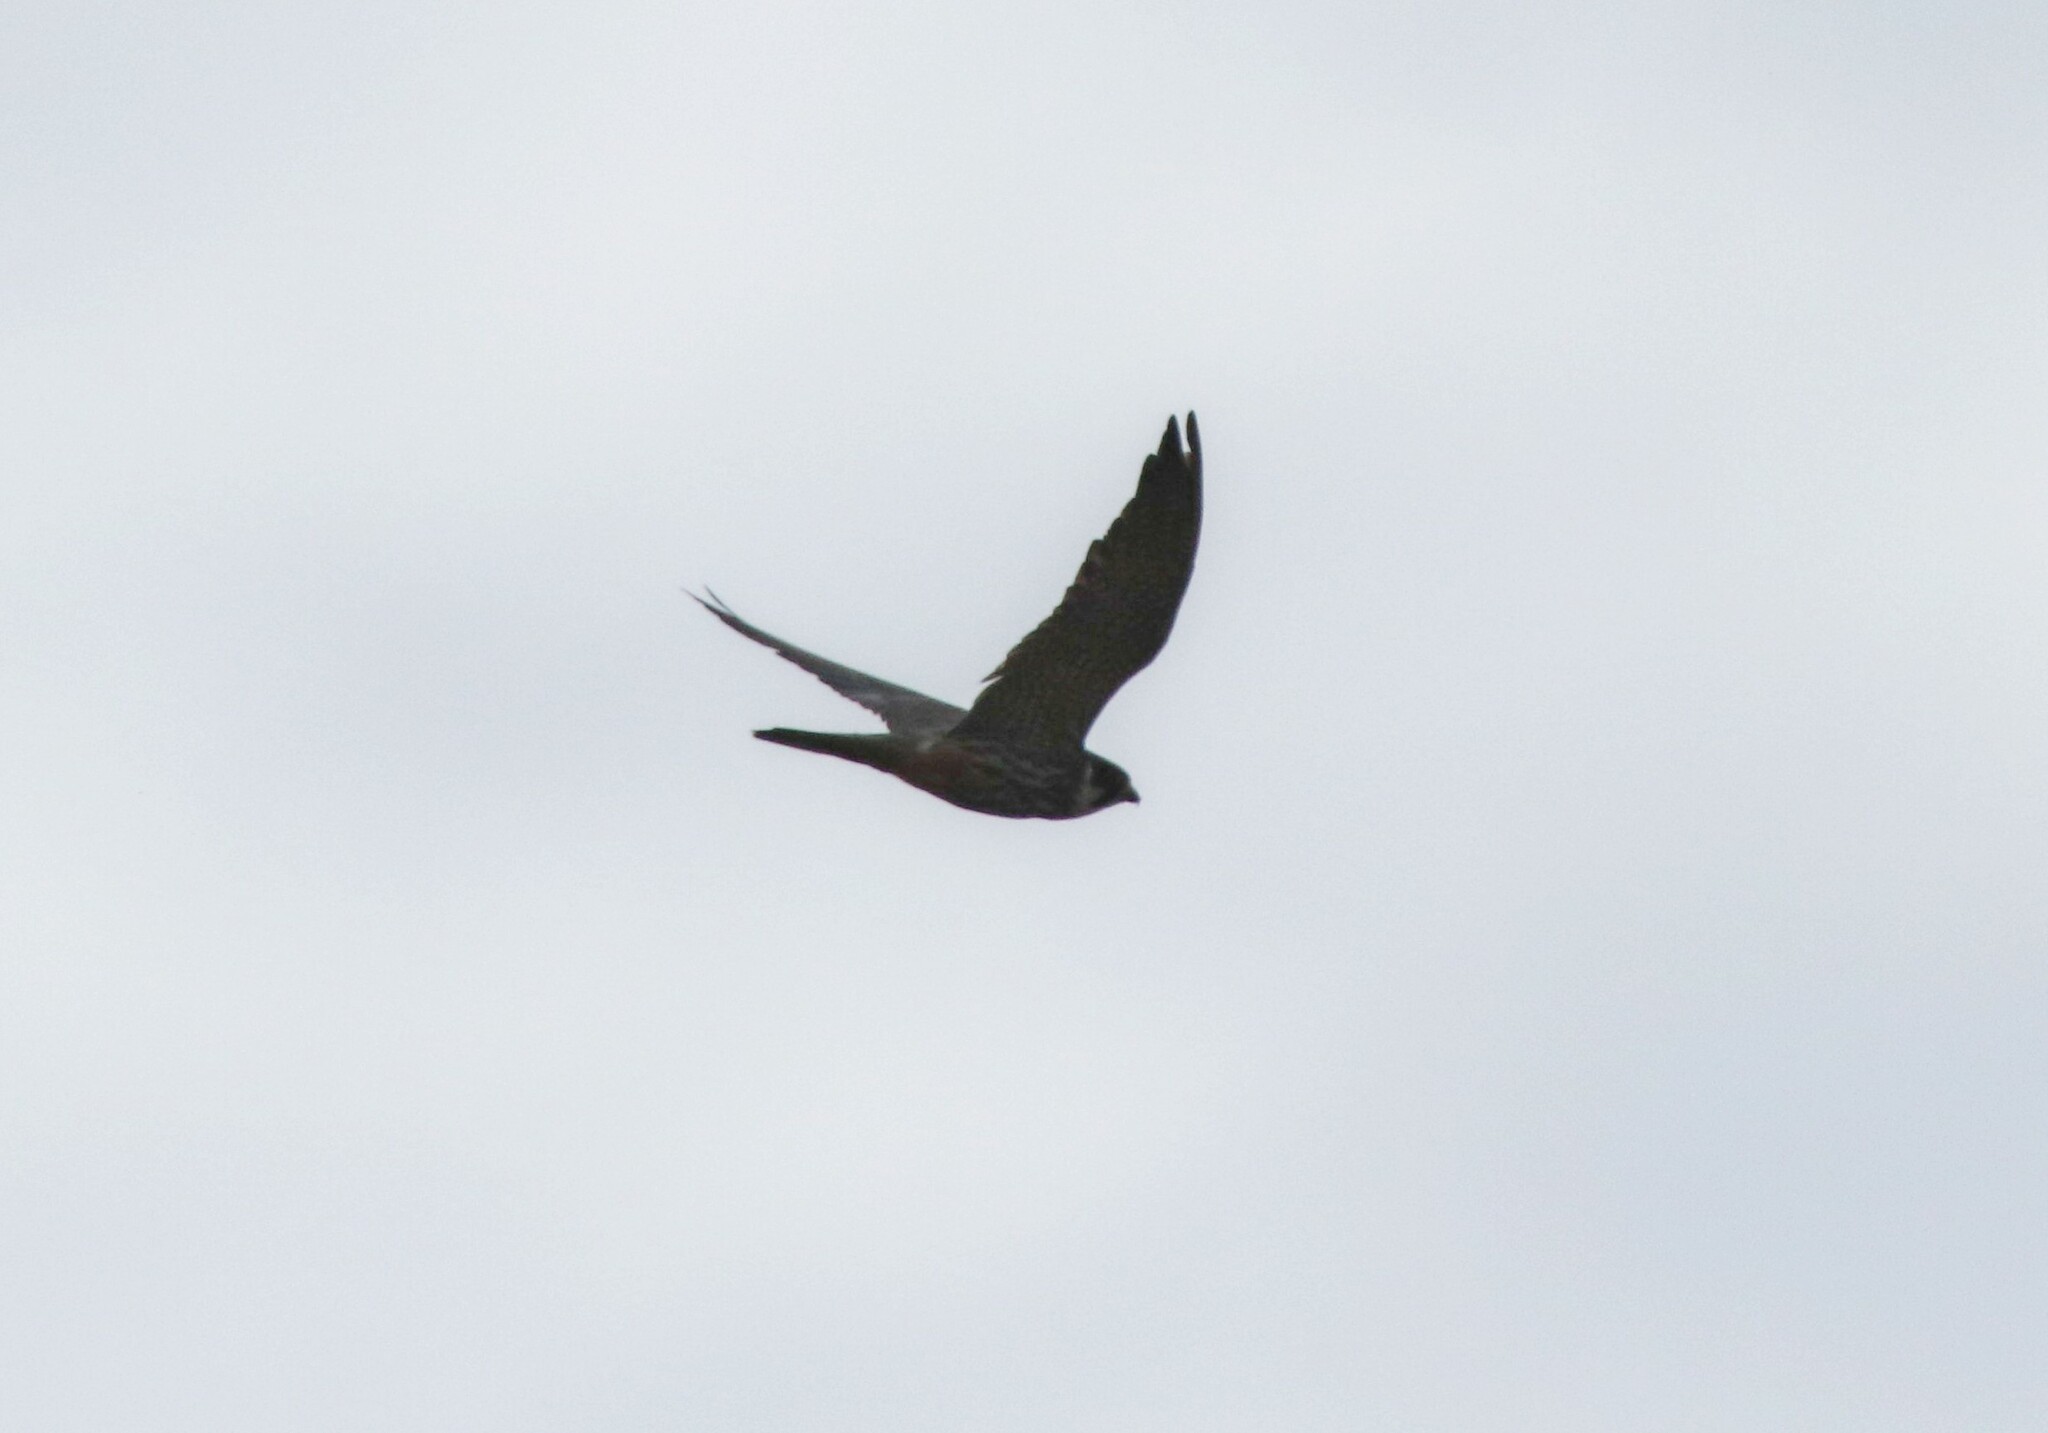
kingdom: Animalia
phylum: Chordata
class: Aves
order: Falconiformes
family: Falconidae
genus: Falco
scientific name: Falco subbuteo
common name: Eurasian hobby
